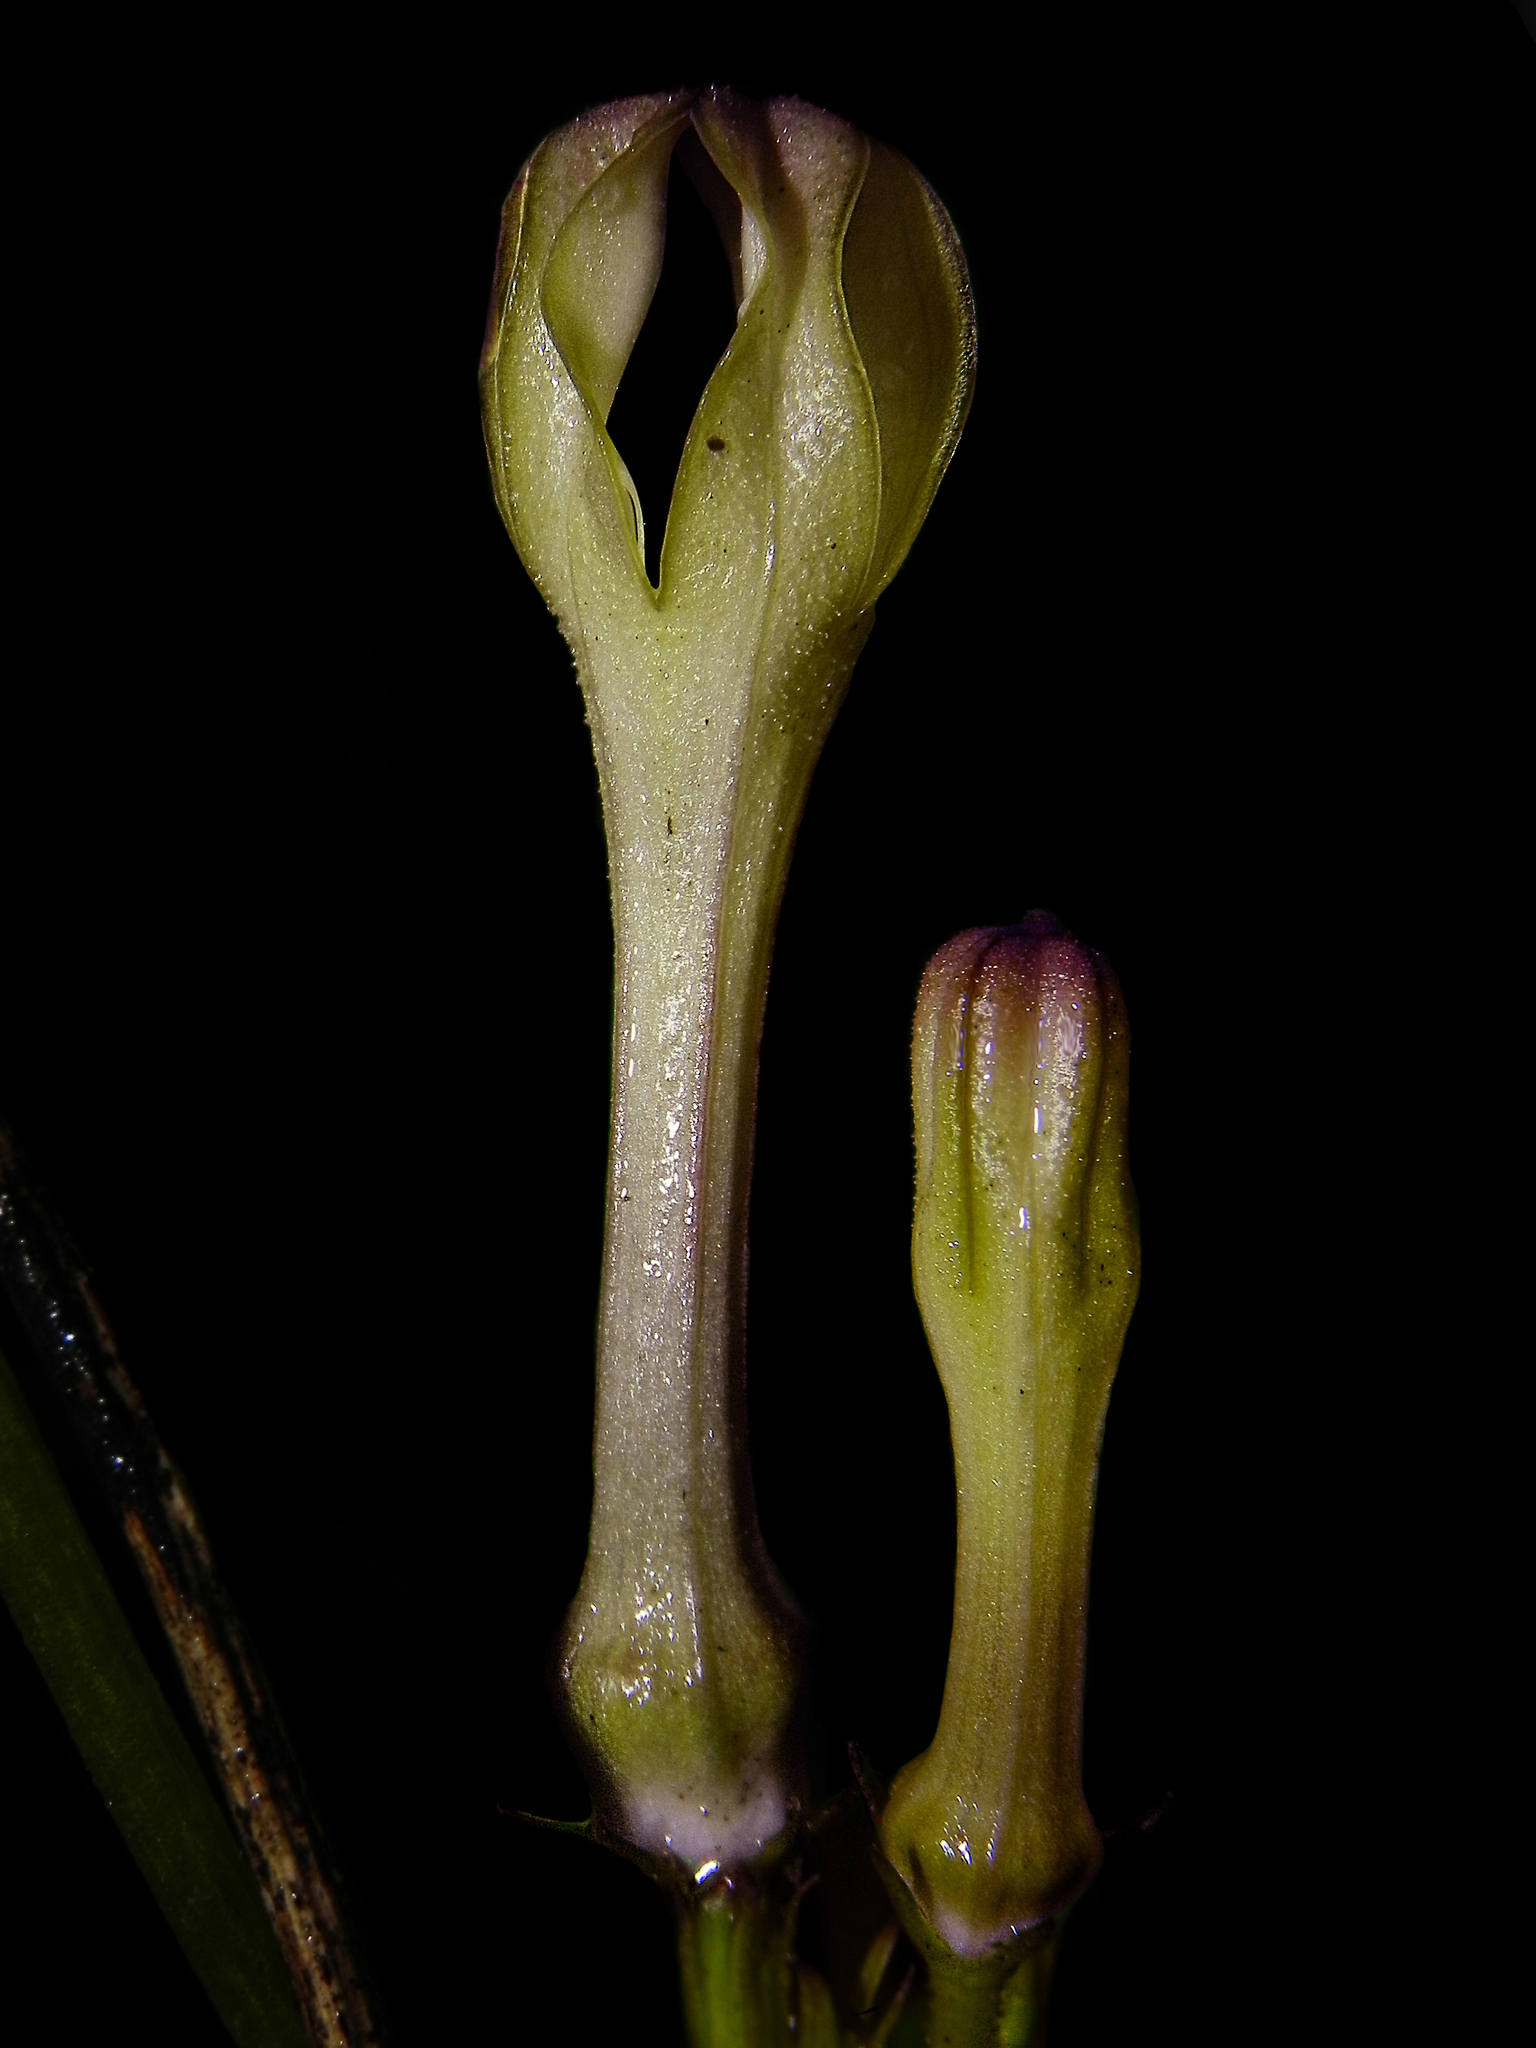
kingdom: Plantae
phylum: Tracheophyta
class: Magnoliopsida
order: Gentianales
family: Apocynaceae
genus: Ceropegia
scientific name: Ceropegia media
